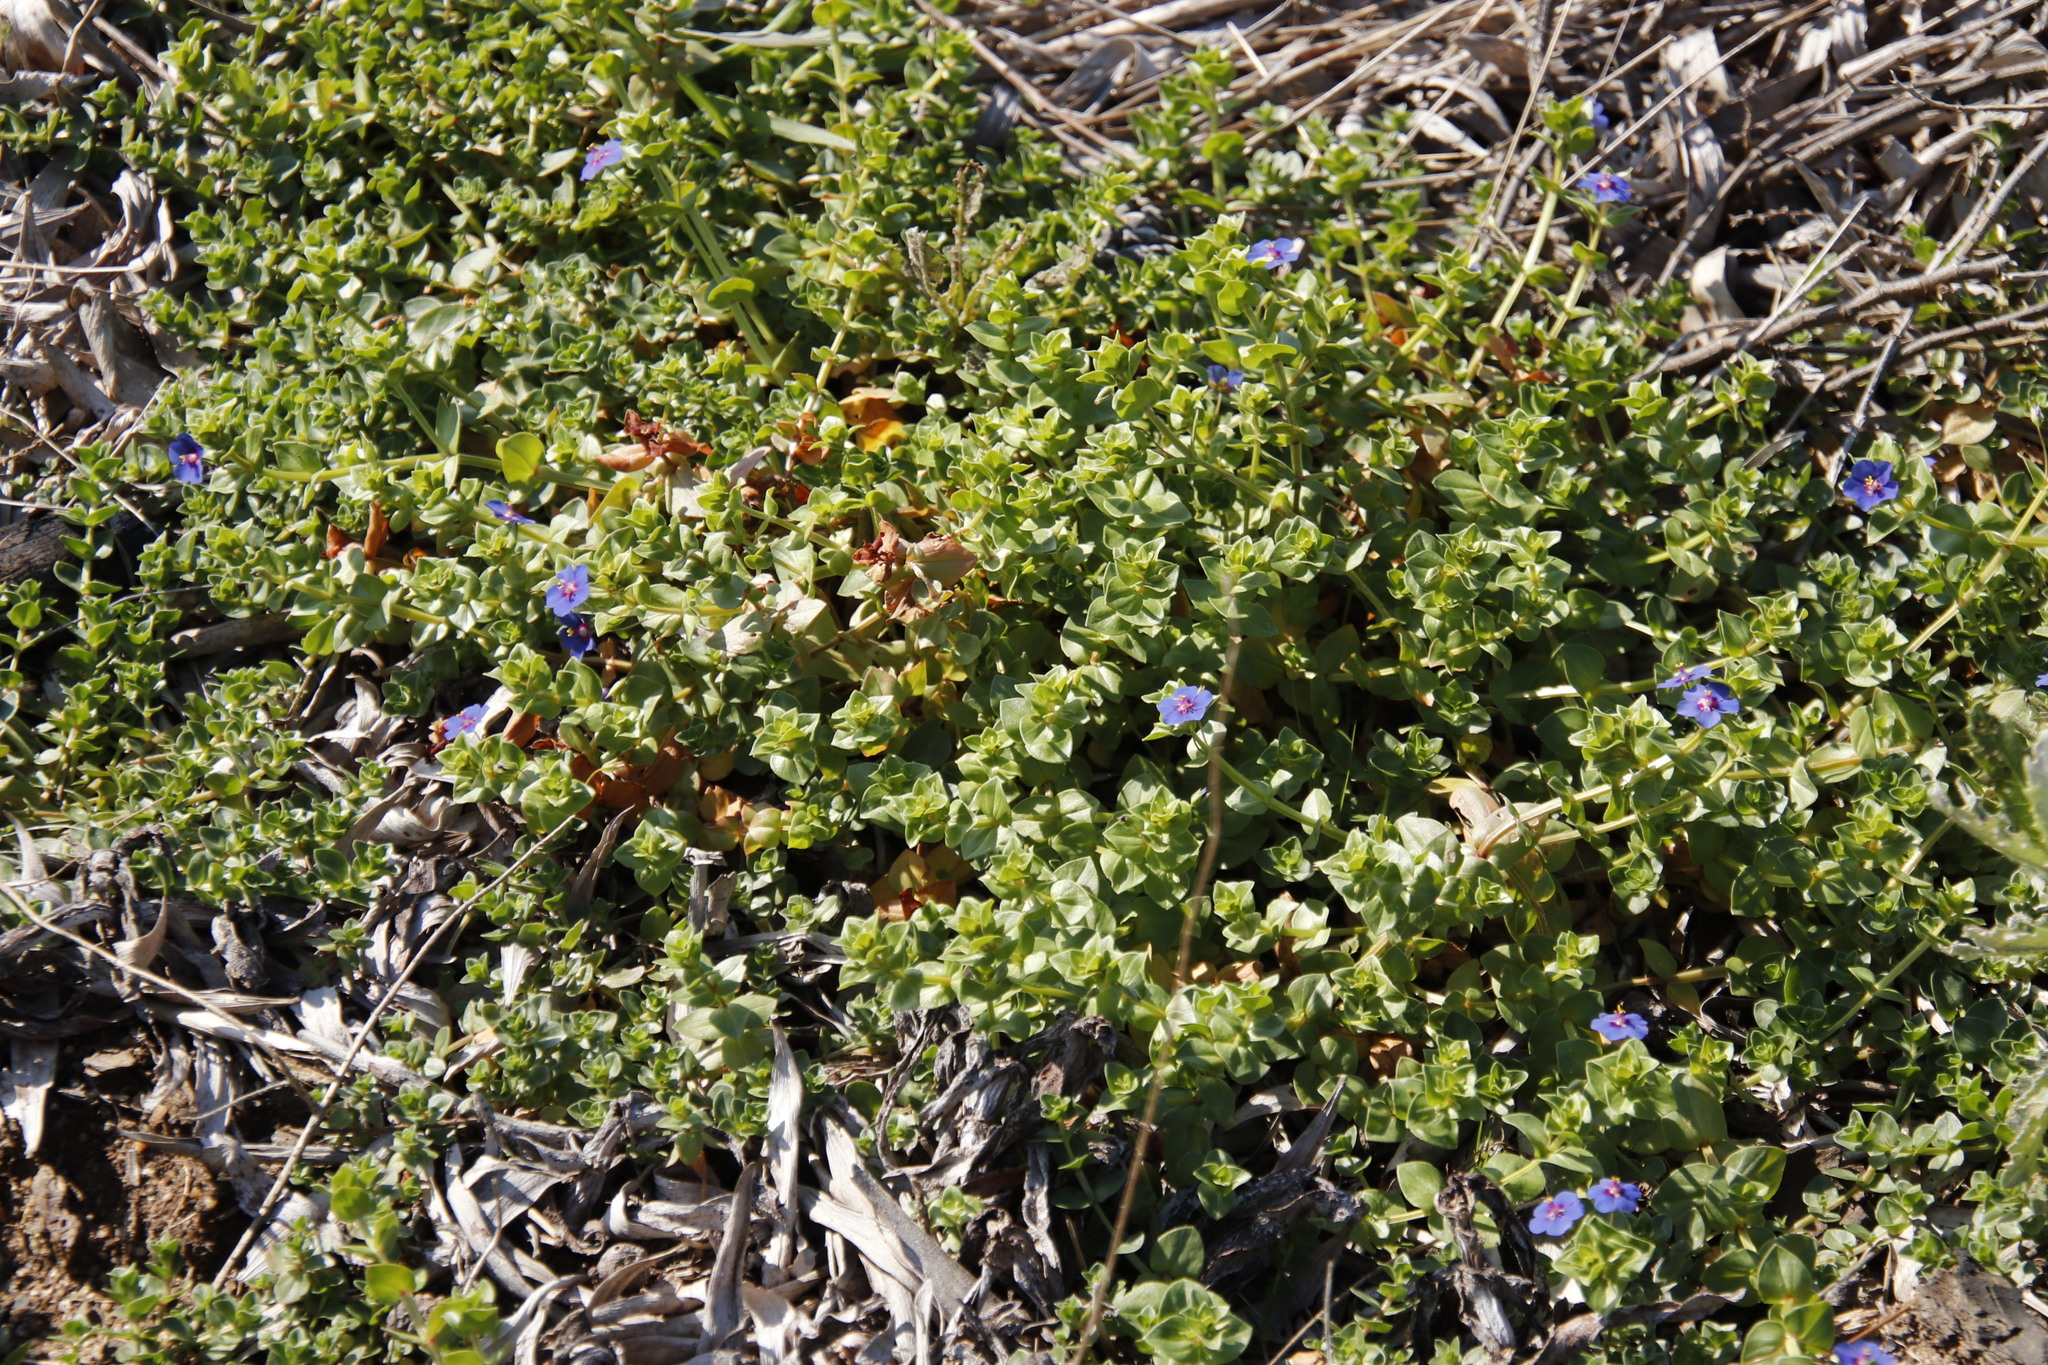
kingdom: Plantae
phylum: Tracheophyta
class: Magnoliopsida
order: Ericales
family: Primulaceae
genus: Lysimachia
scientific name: Lysimachia loeflingii
